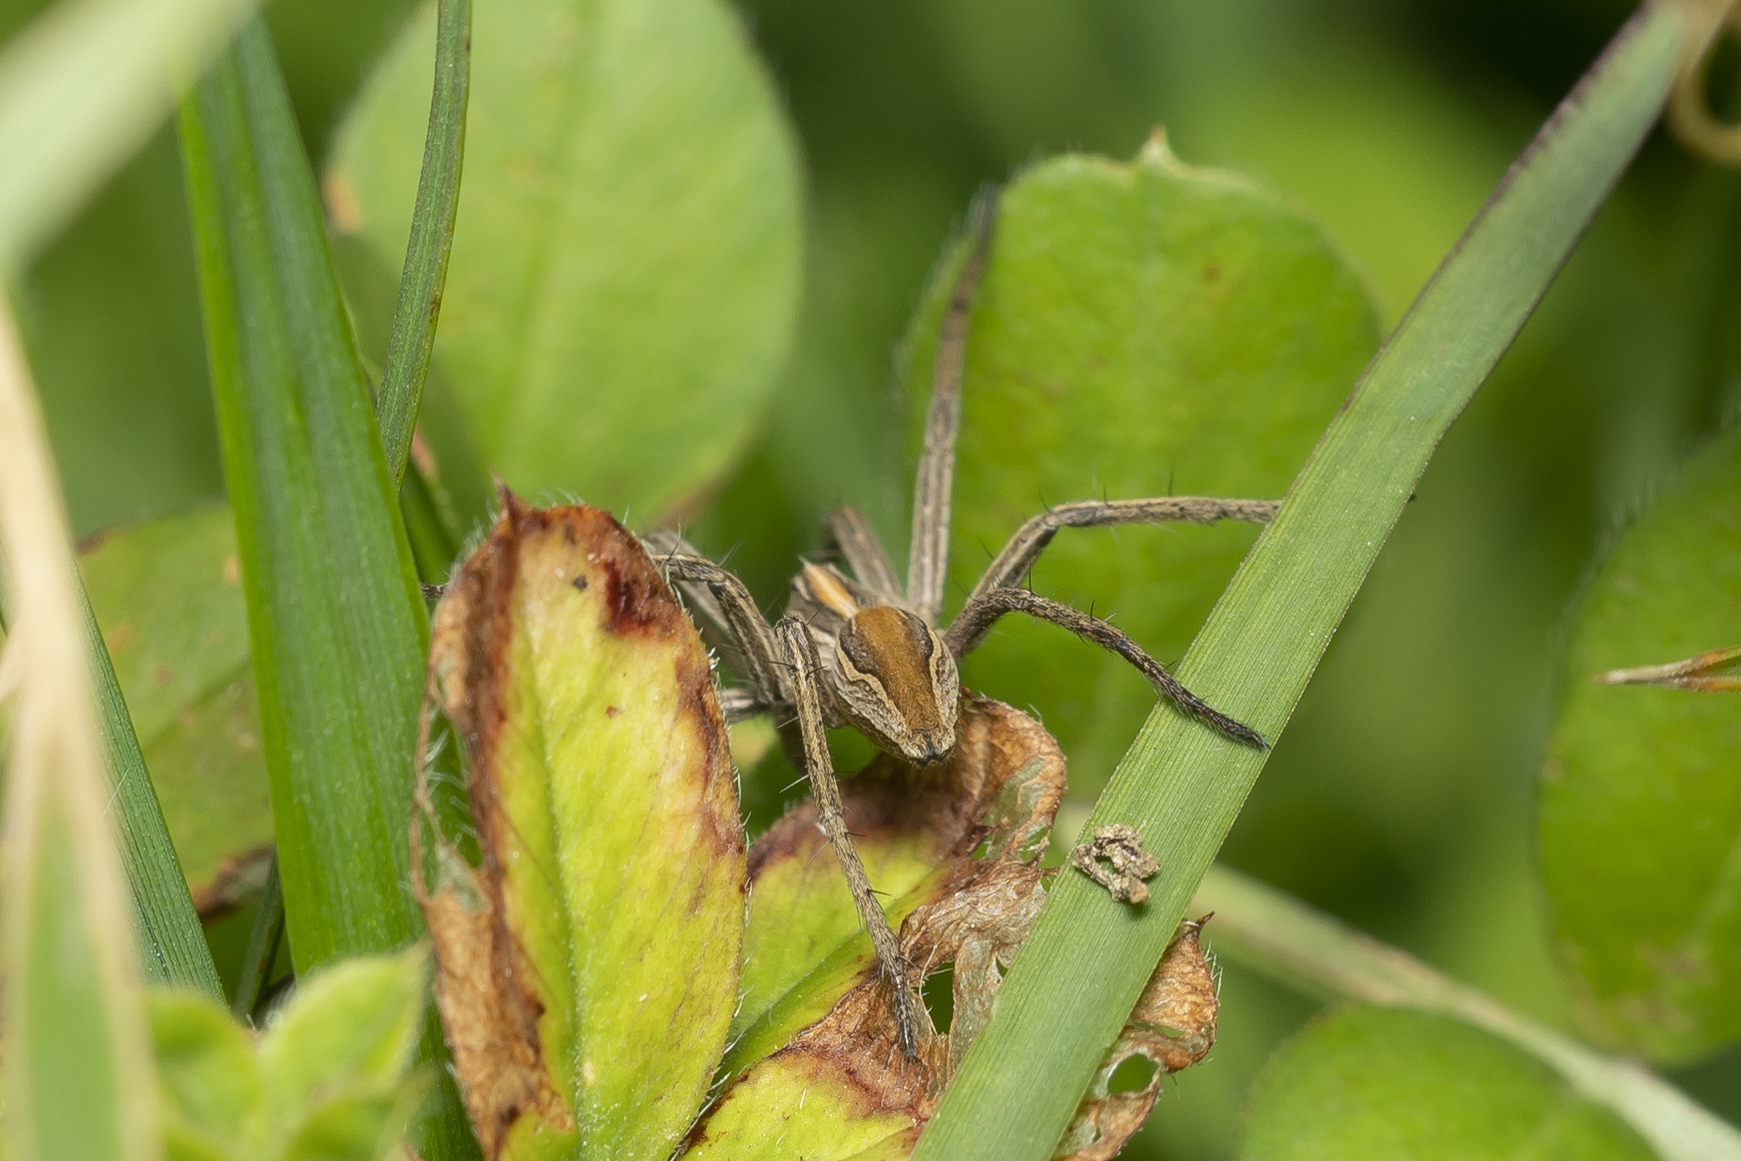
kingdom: Animalia
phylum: Arthropoda
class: Arachnida
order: Araneae
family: Pisauridae
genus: Pisaura
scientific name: Pisaura mirabilis
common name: Tent spider
